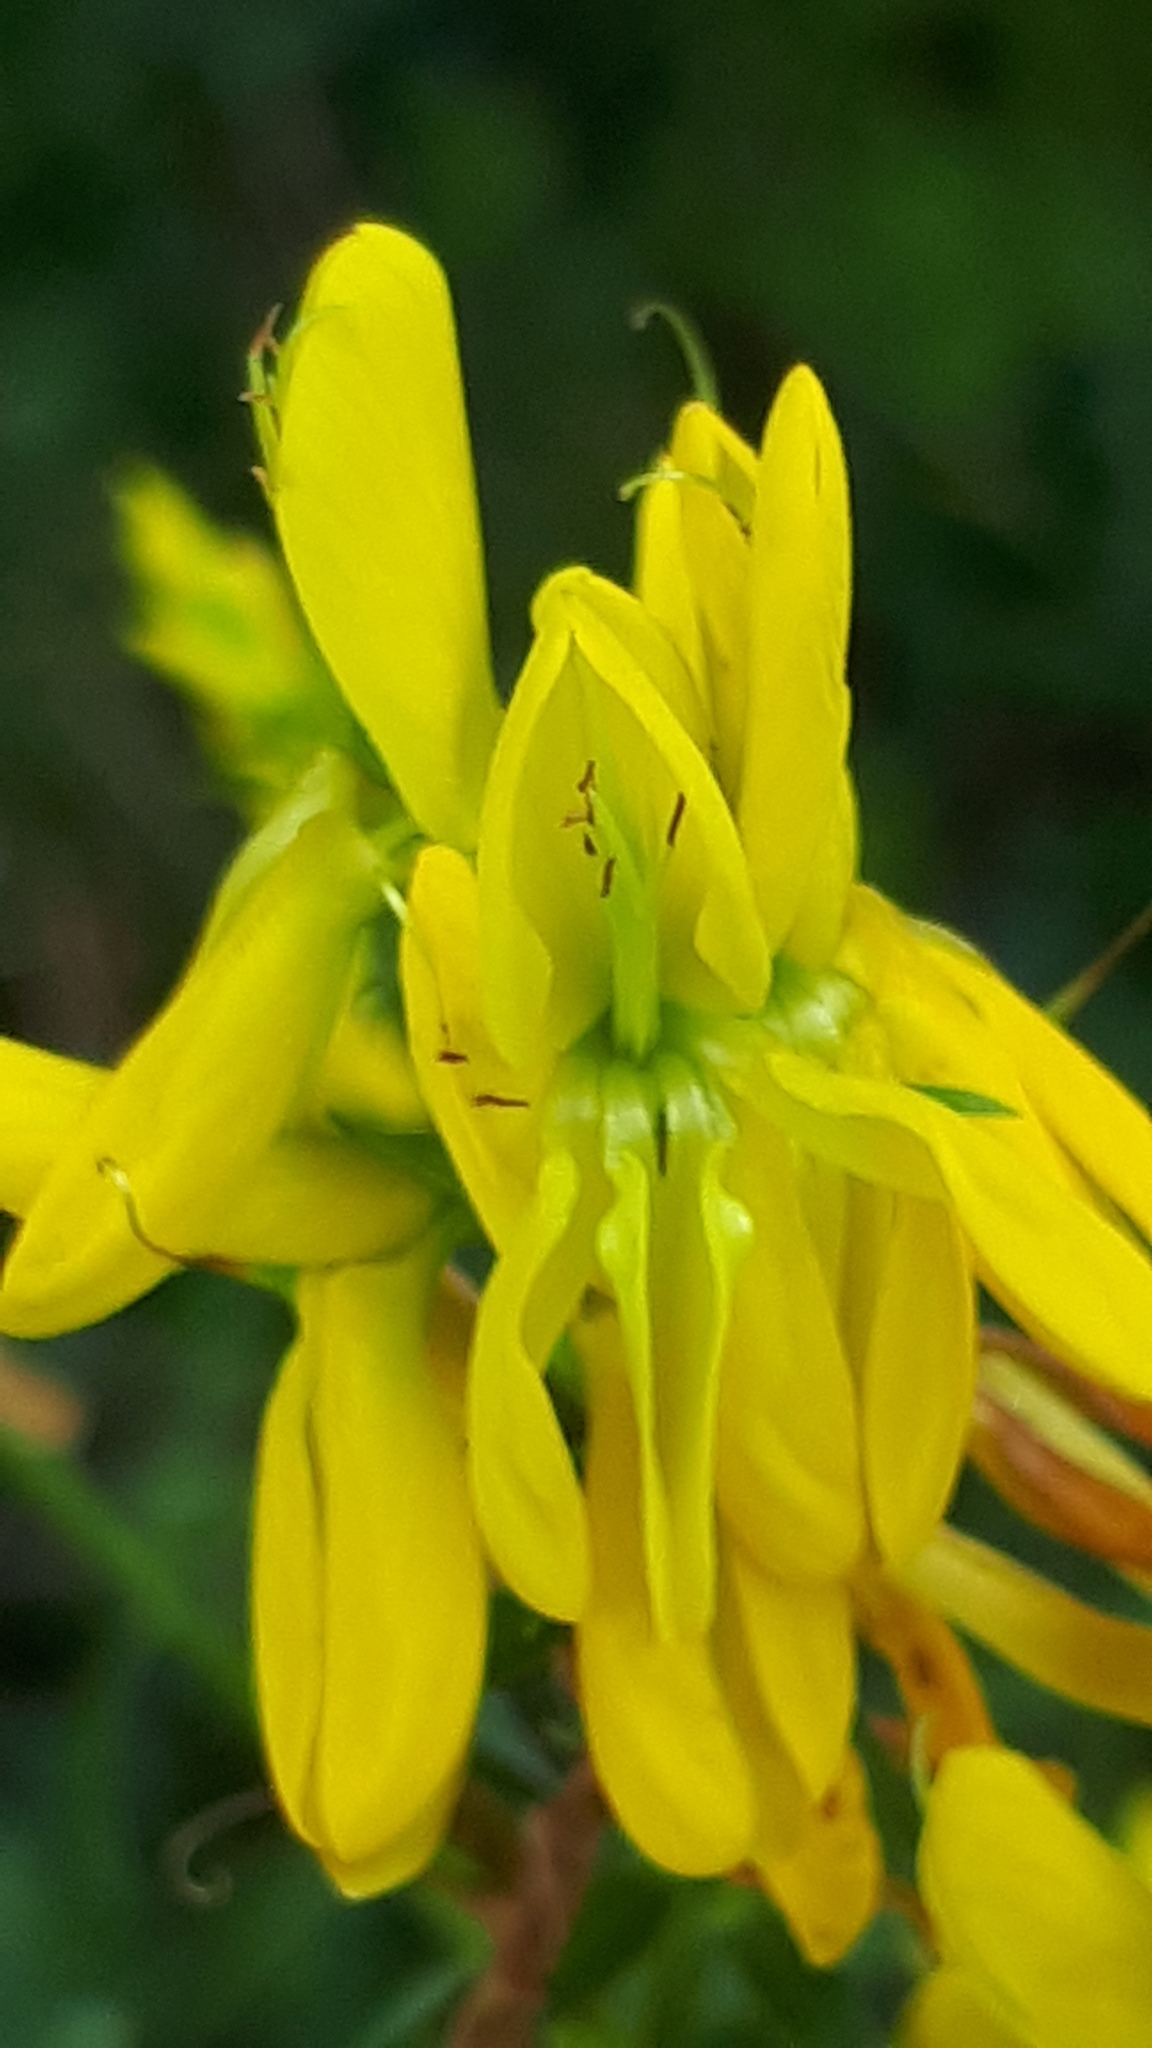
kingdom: Plantae
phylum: Tracheophyta
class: Magnoliopsida
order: Fabales
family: Fabaceae
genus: Genista
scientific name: Genista tinctoria
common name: Dyer's greenweed
